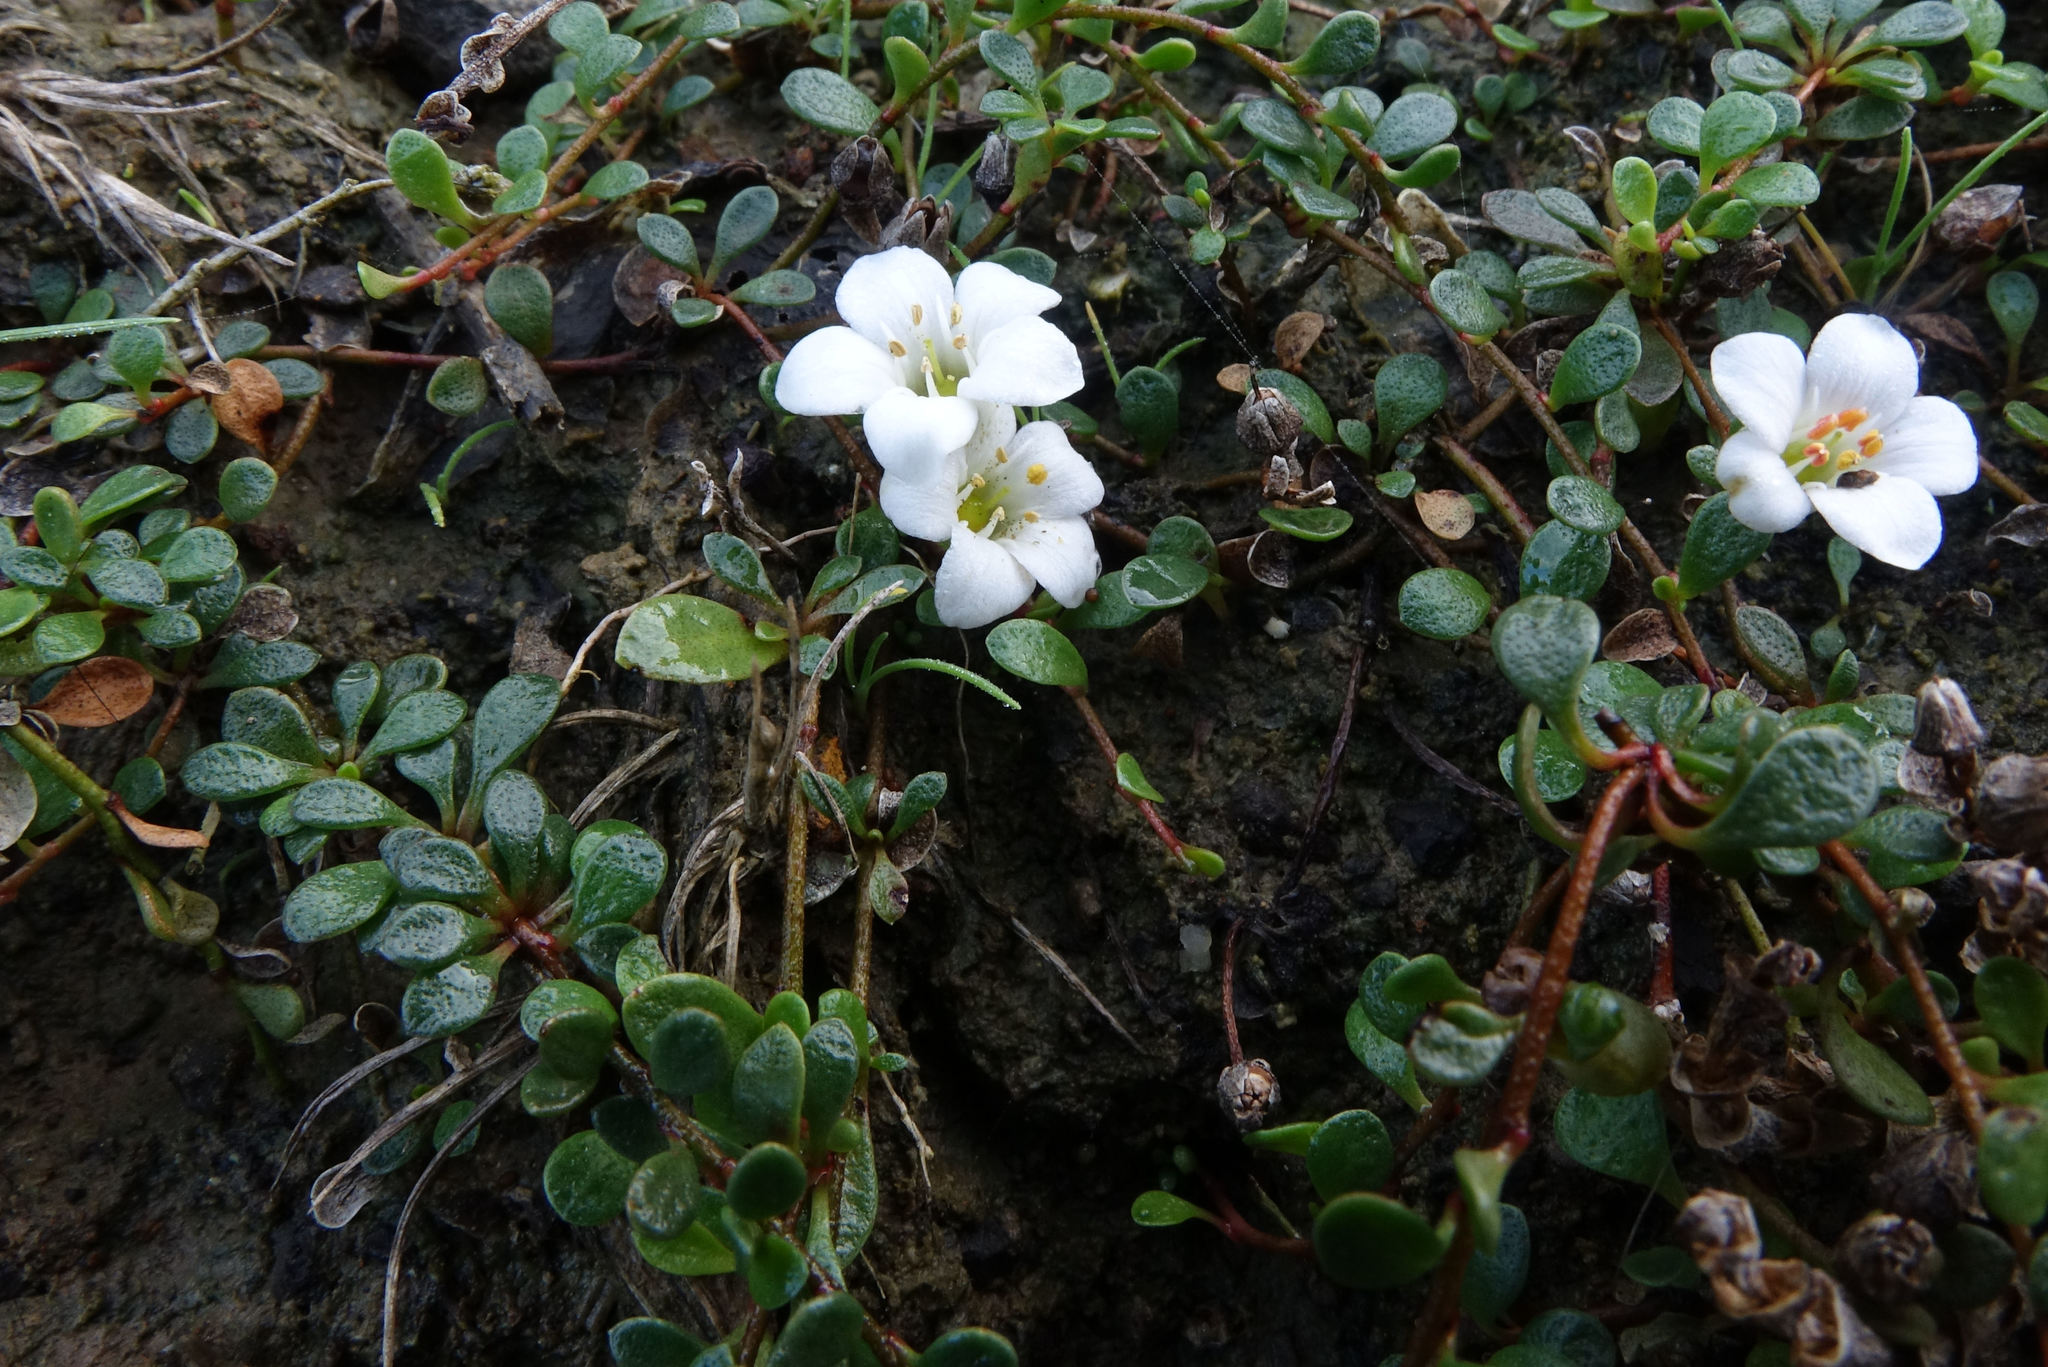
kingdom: Plantae
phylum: Tracheophyta
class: Magnoliopsida
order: Ericales
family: Primulaceae
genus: Samolus
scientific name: Samolus repens
